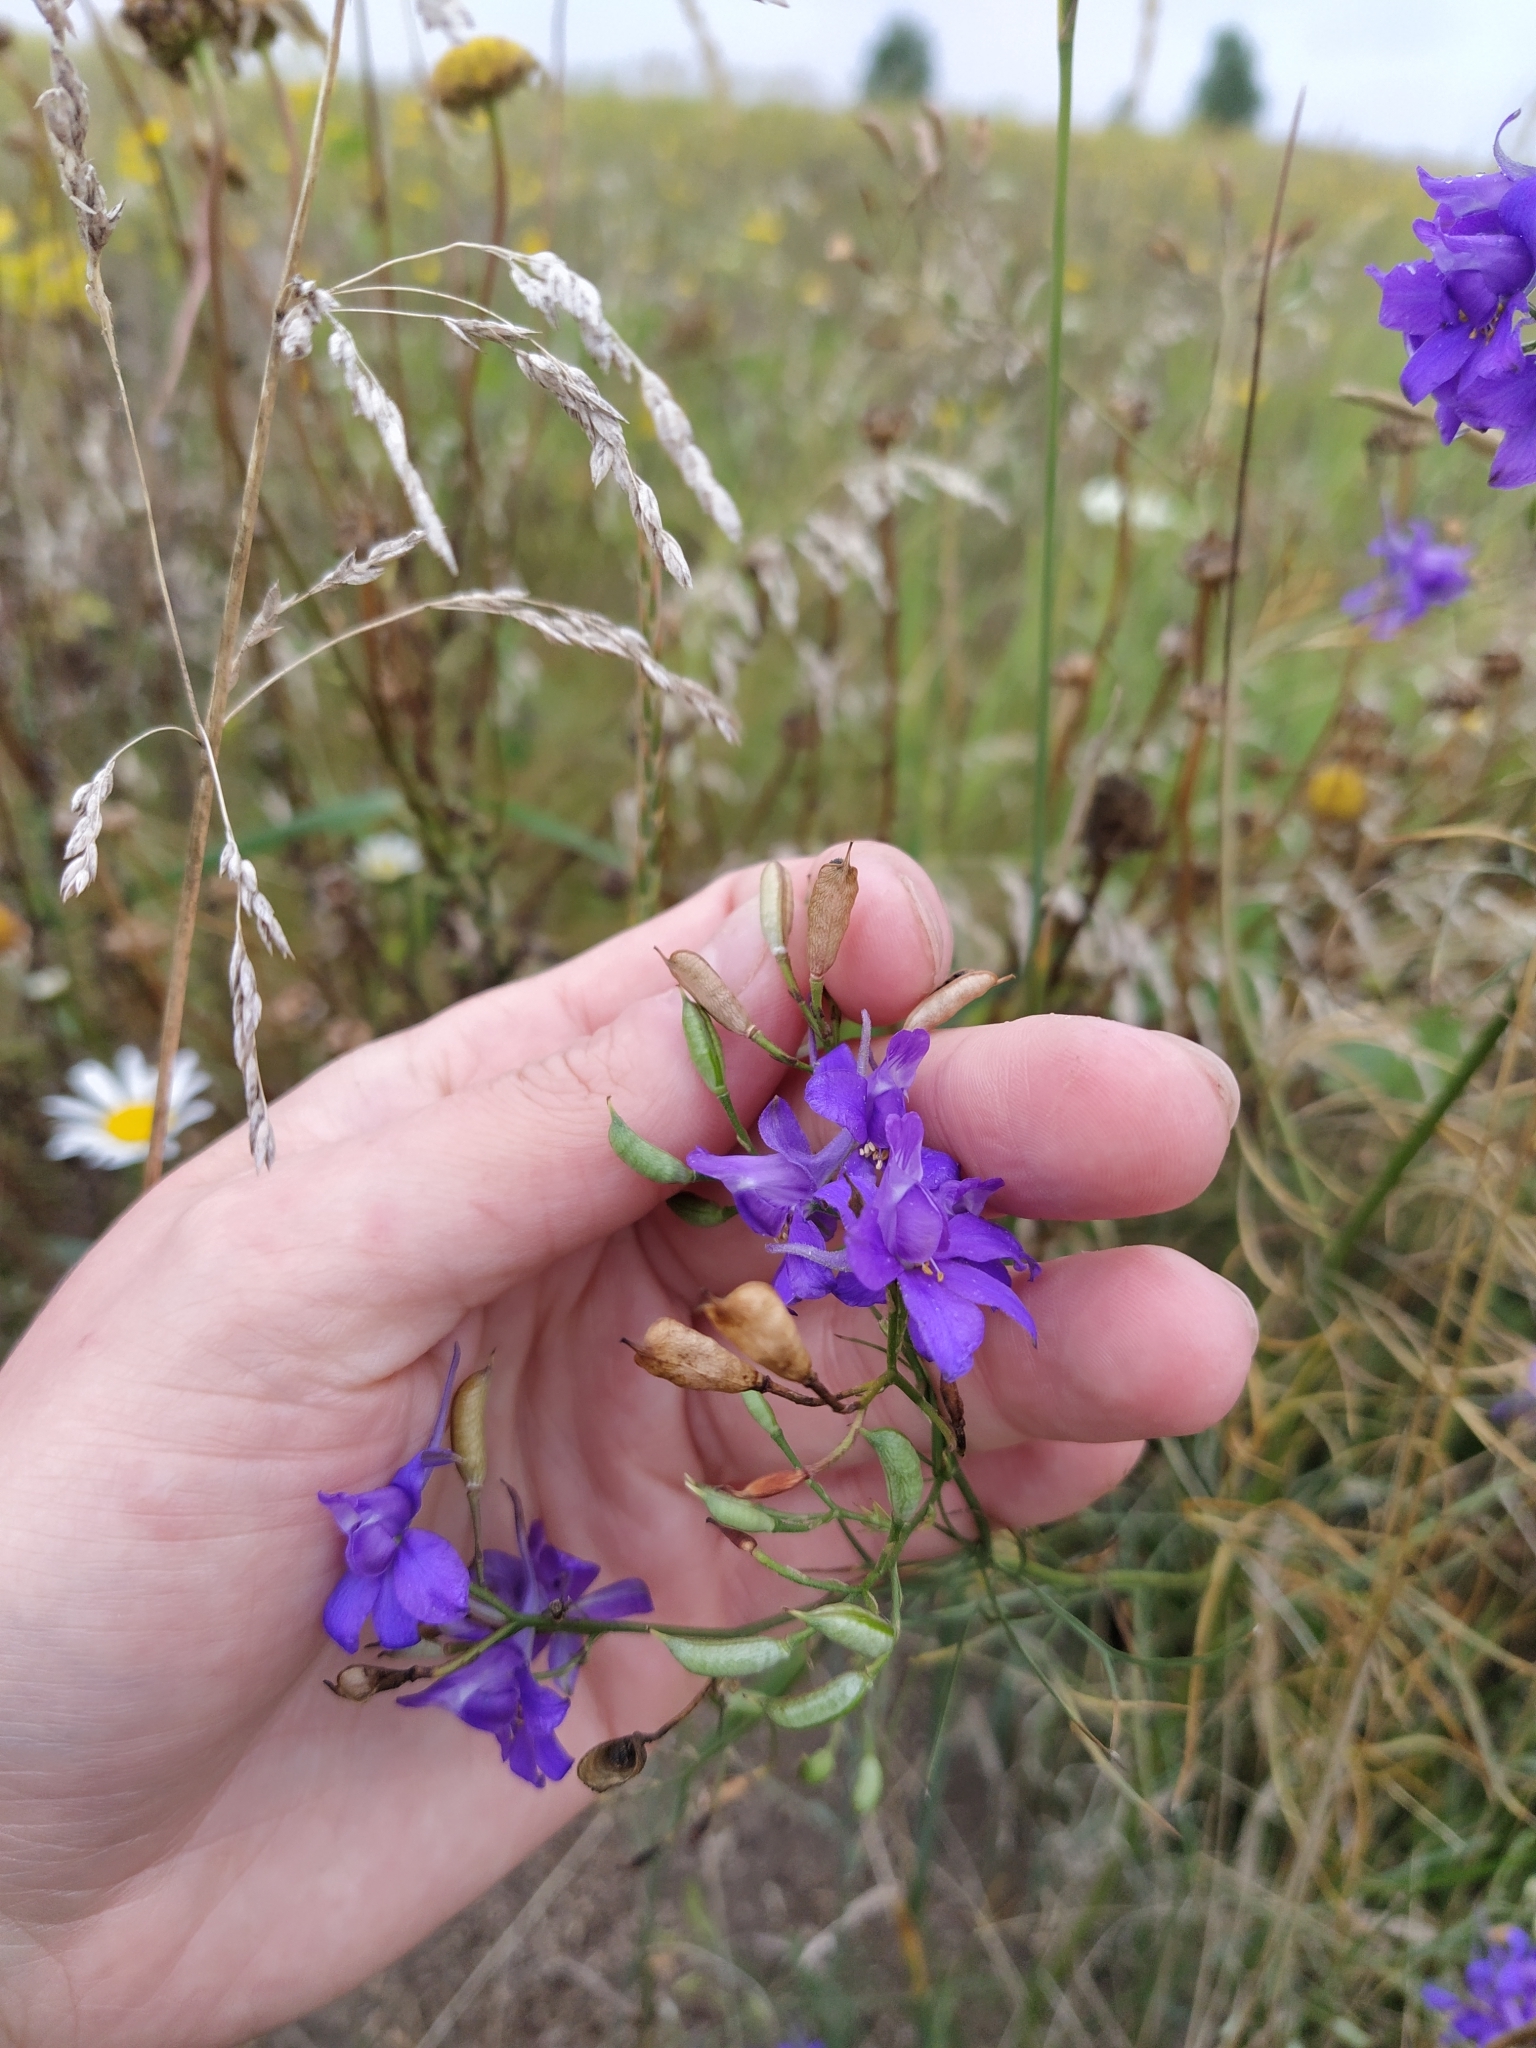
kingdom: Plantae
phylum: Tracheophyta
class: Magnoliopsida
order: Ranunculales
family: Ranunculaceae
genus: Delphinium
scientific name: Delphinium consolida
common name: Branching larkspur
